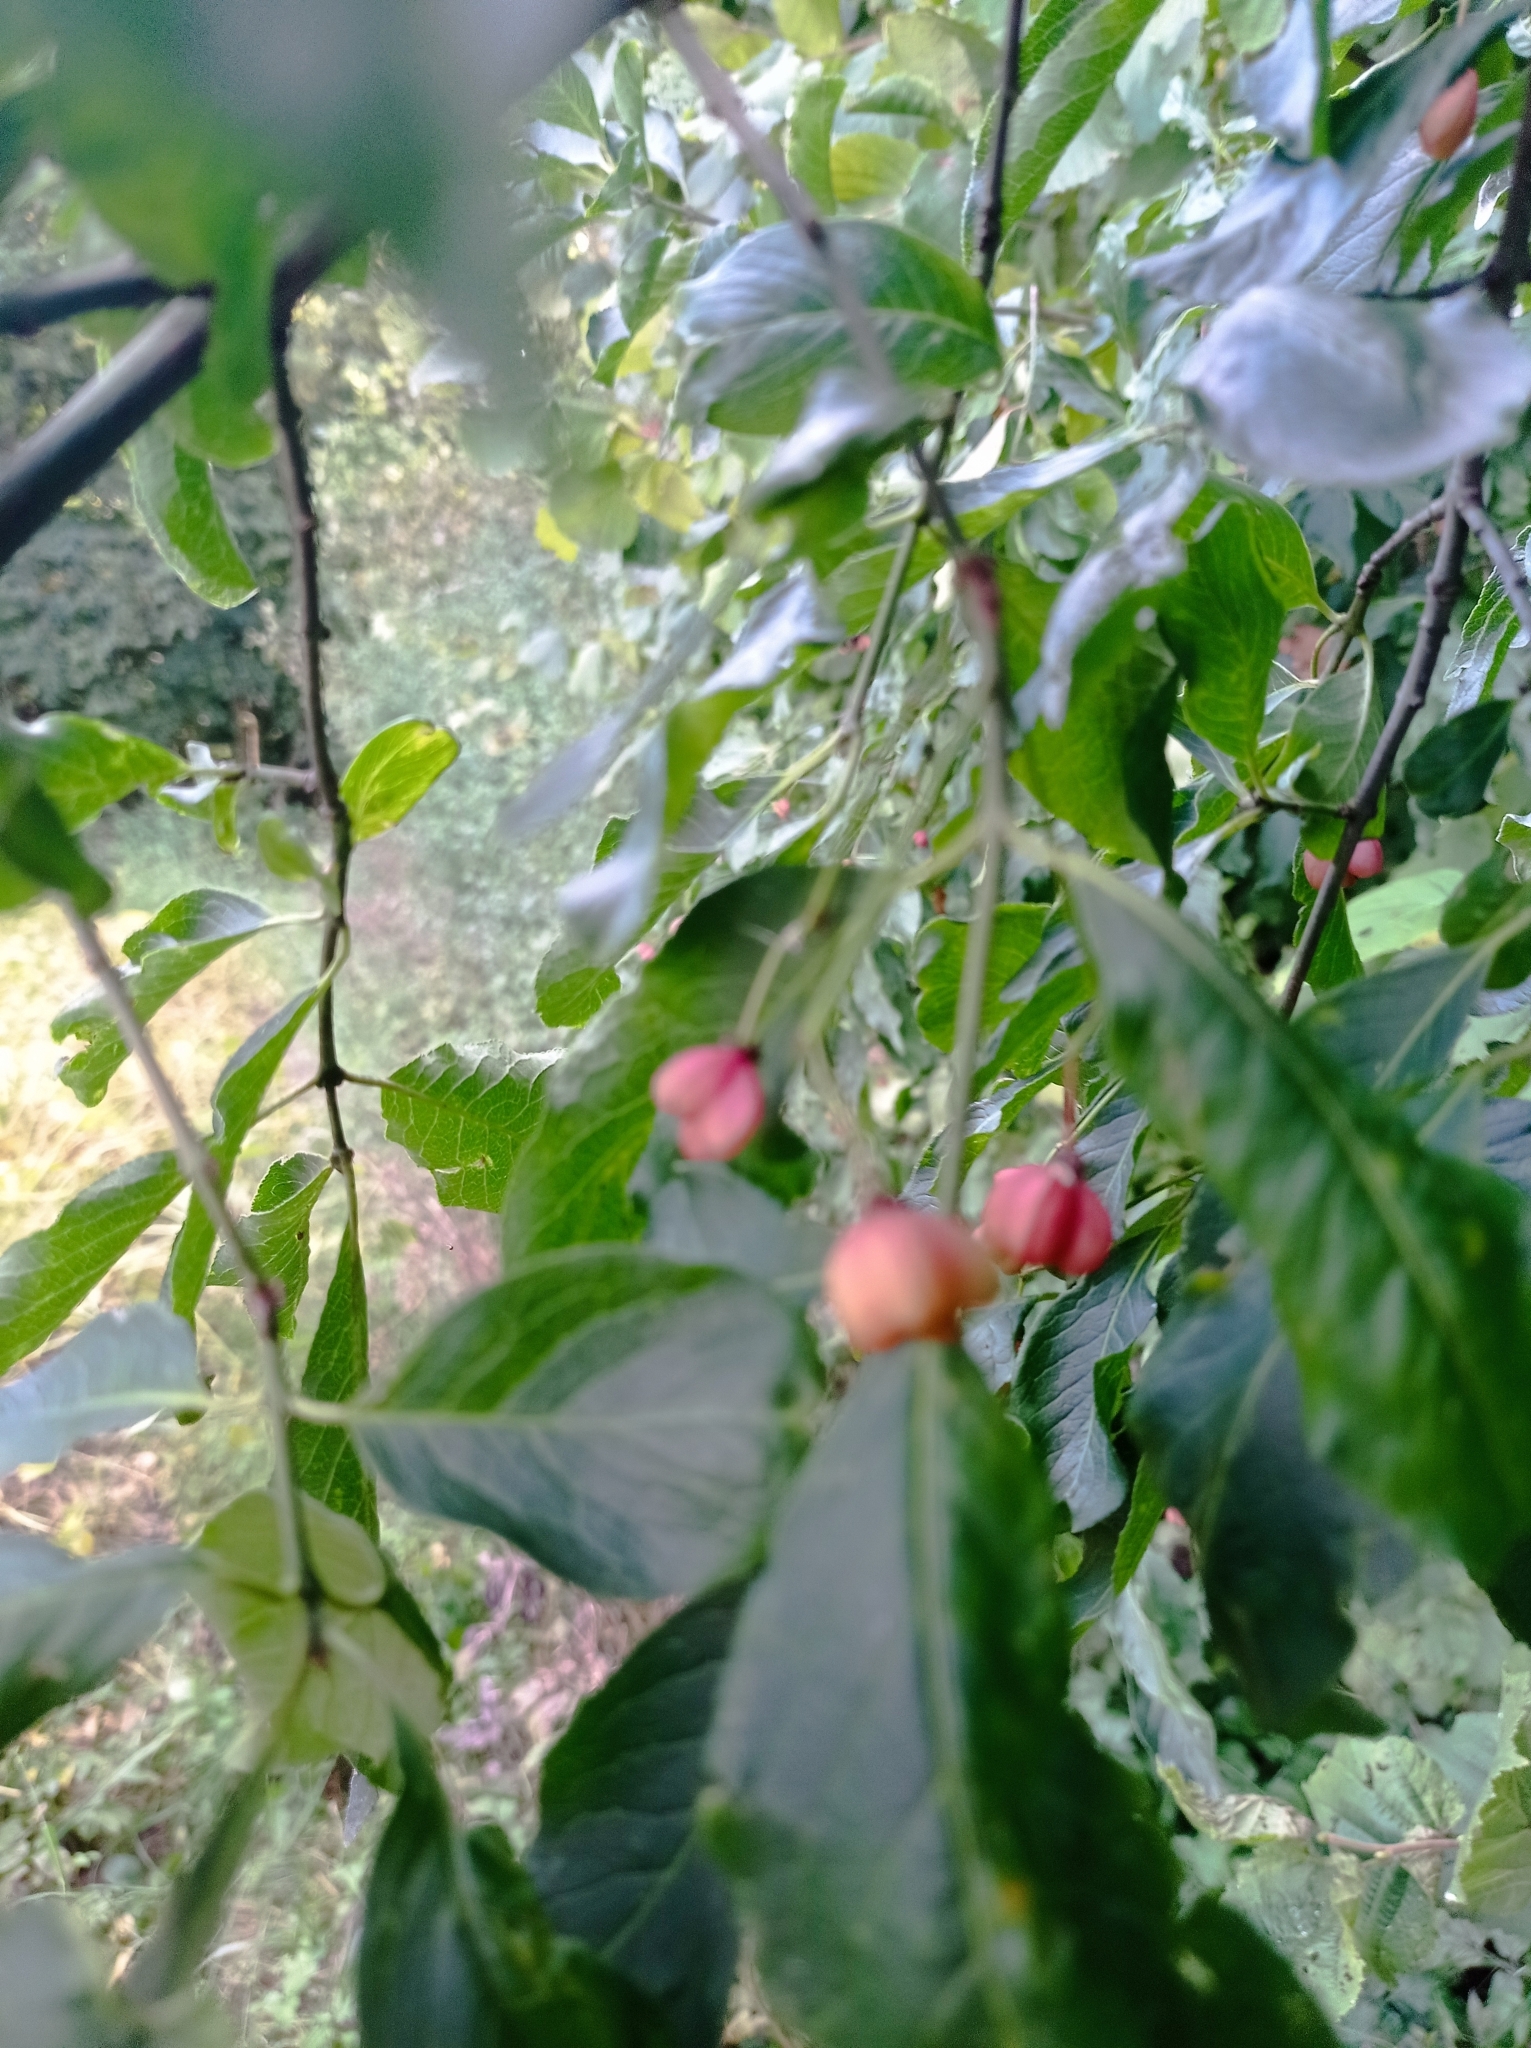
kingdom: Plantae
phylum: Tracheophyta
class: Magnoliopsida
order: Celastrales
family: Celastraceae
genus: Euonymus
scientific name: Euonymus europaeus
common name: Spindle
